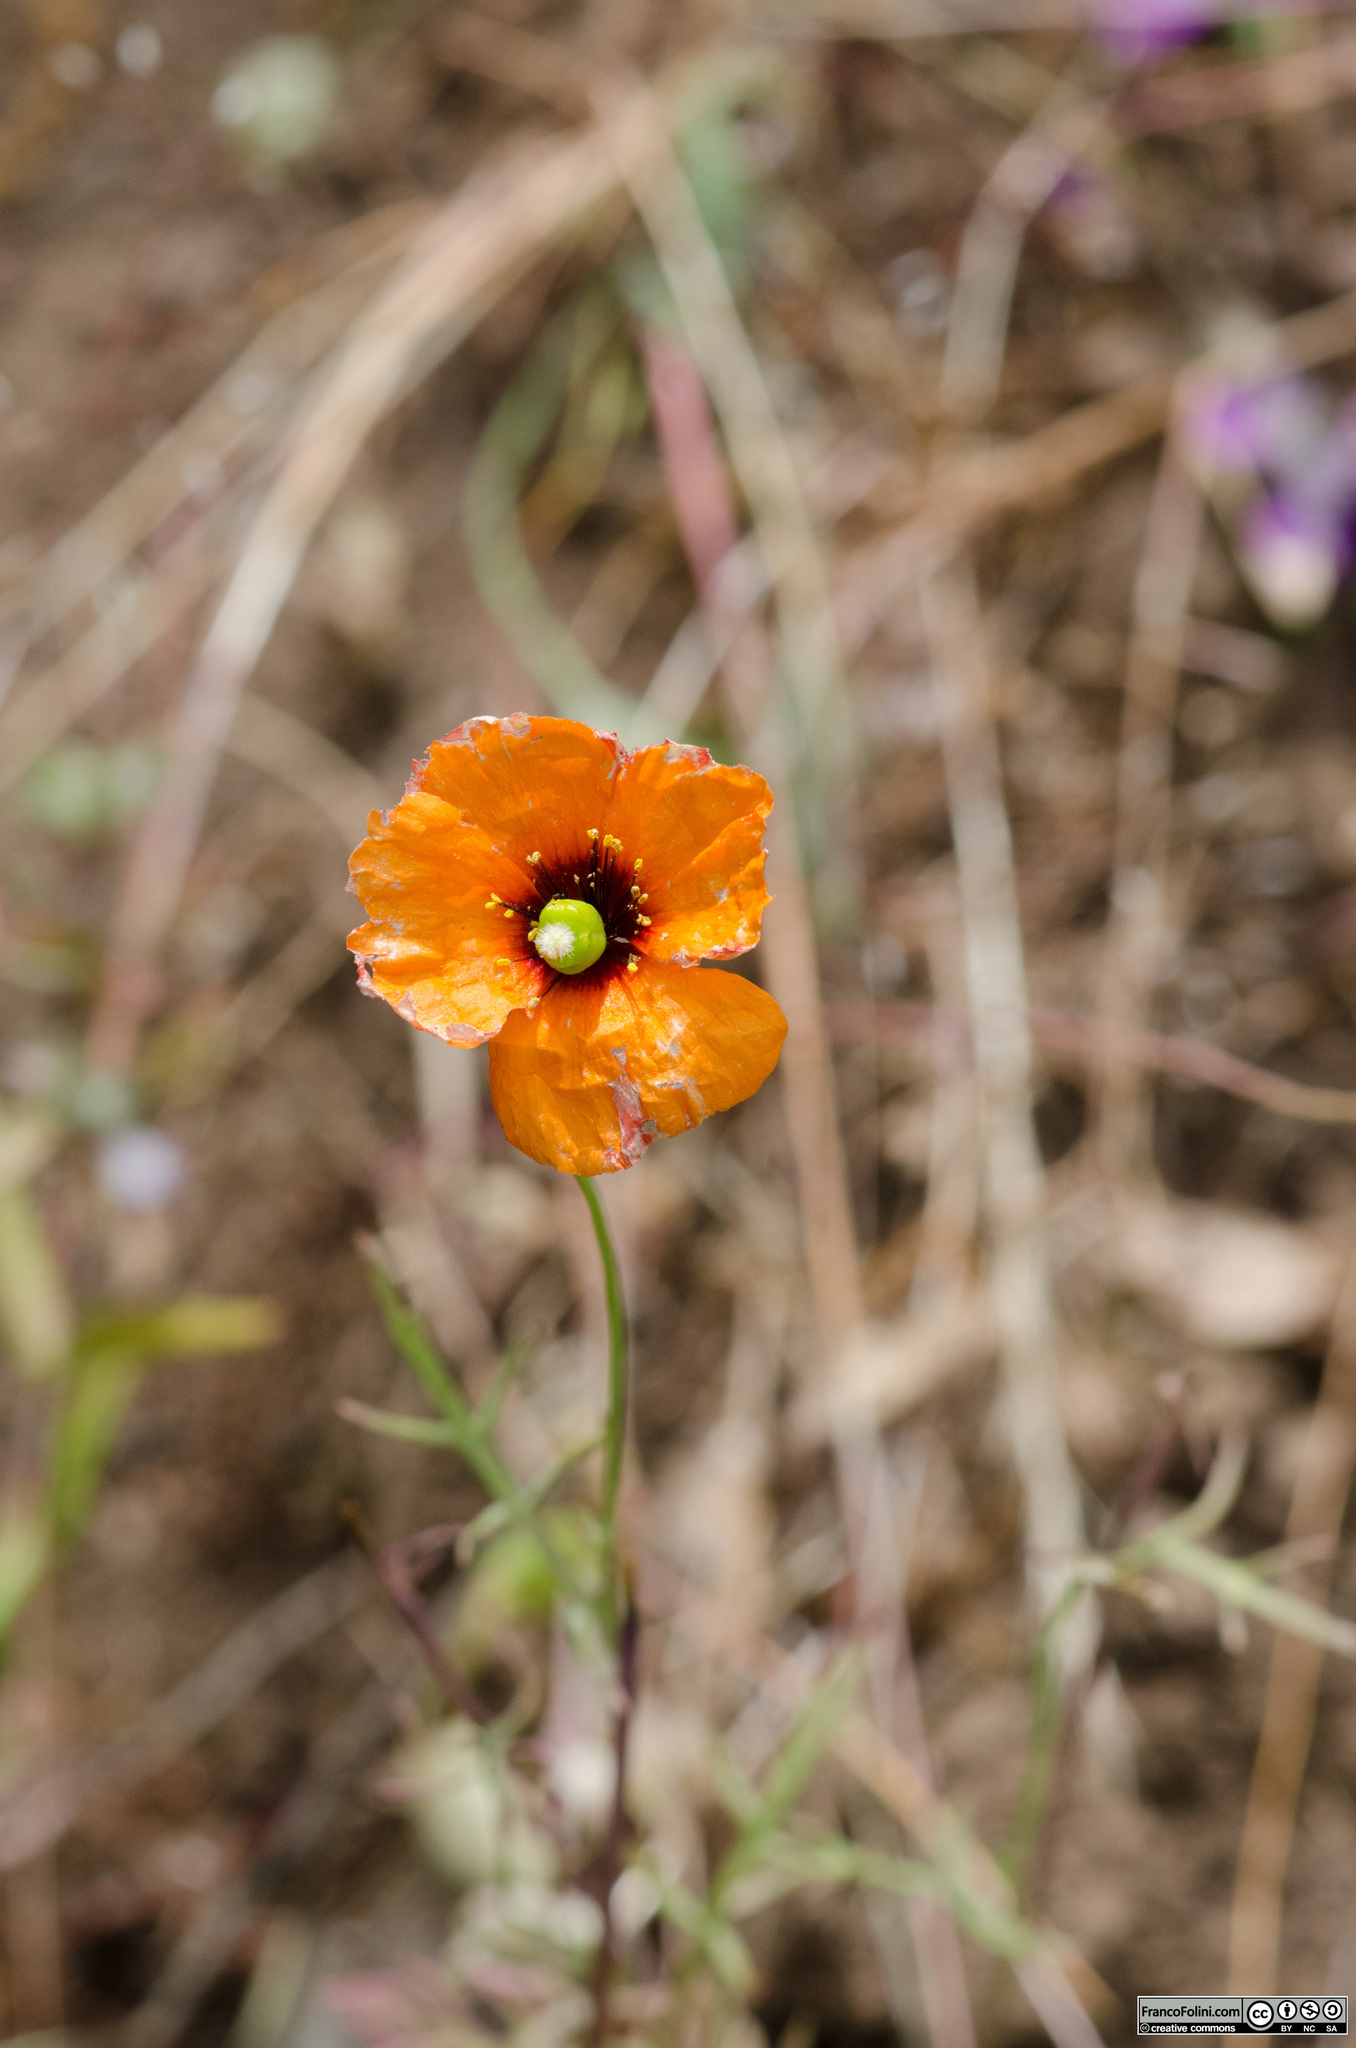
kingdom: Plantae
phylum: Tracheophyta
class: Magnoliopsida
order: Ranunculales
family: Papaveraceae
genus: Stylomecon
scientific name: Stylomecon heterophylla
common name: Flaming-poppy
